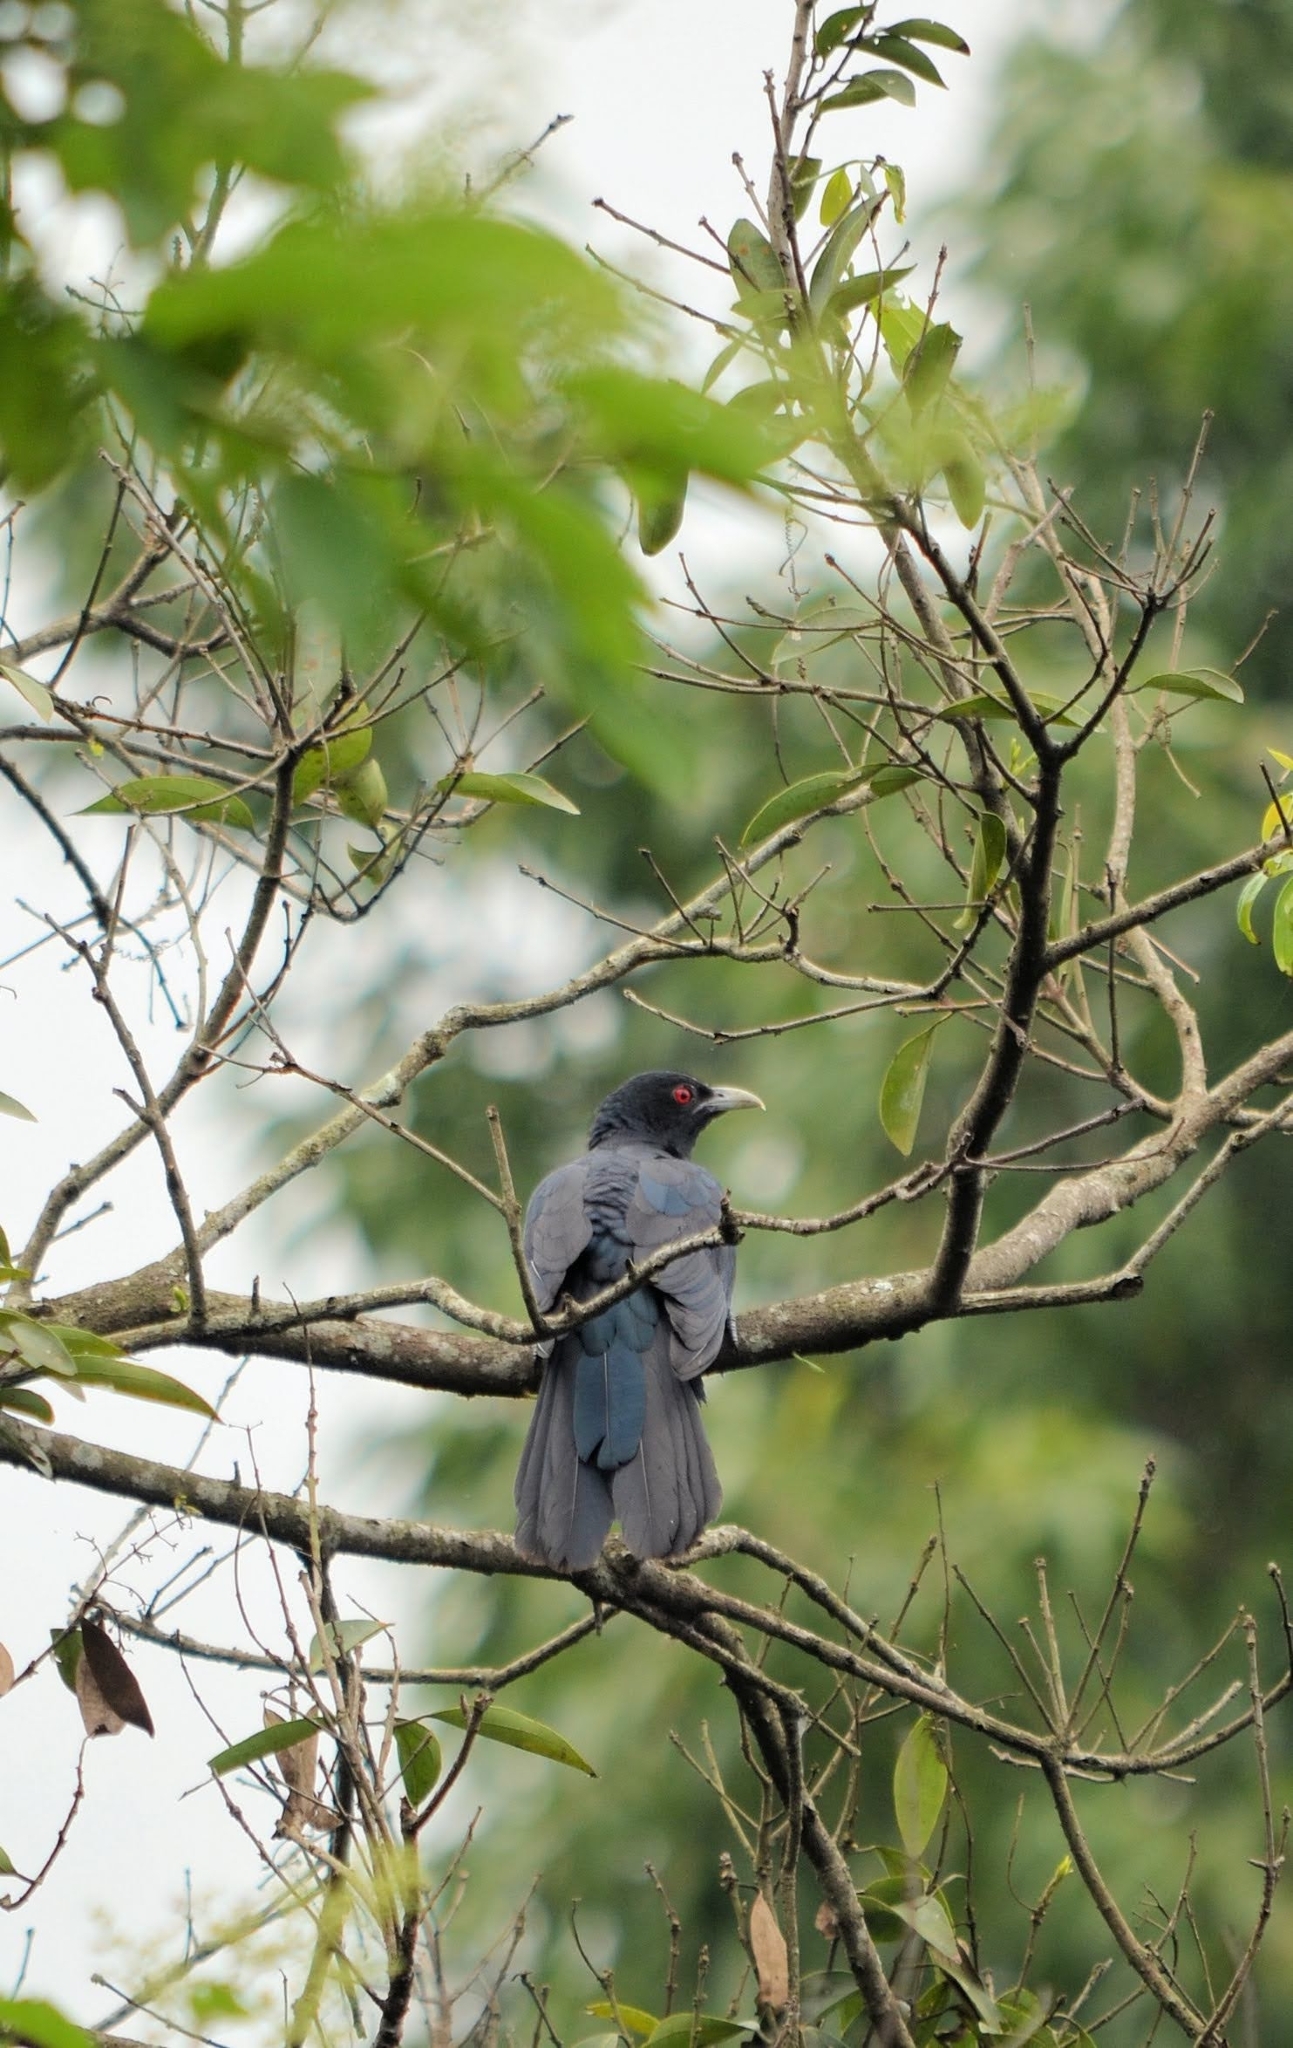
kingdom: Animalia
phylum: Chordata
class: Aves
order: Cuculiformes
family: Cuculidae
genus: Eudynamys
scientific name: Eudynamys scolopaceus
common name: Asian koel
